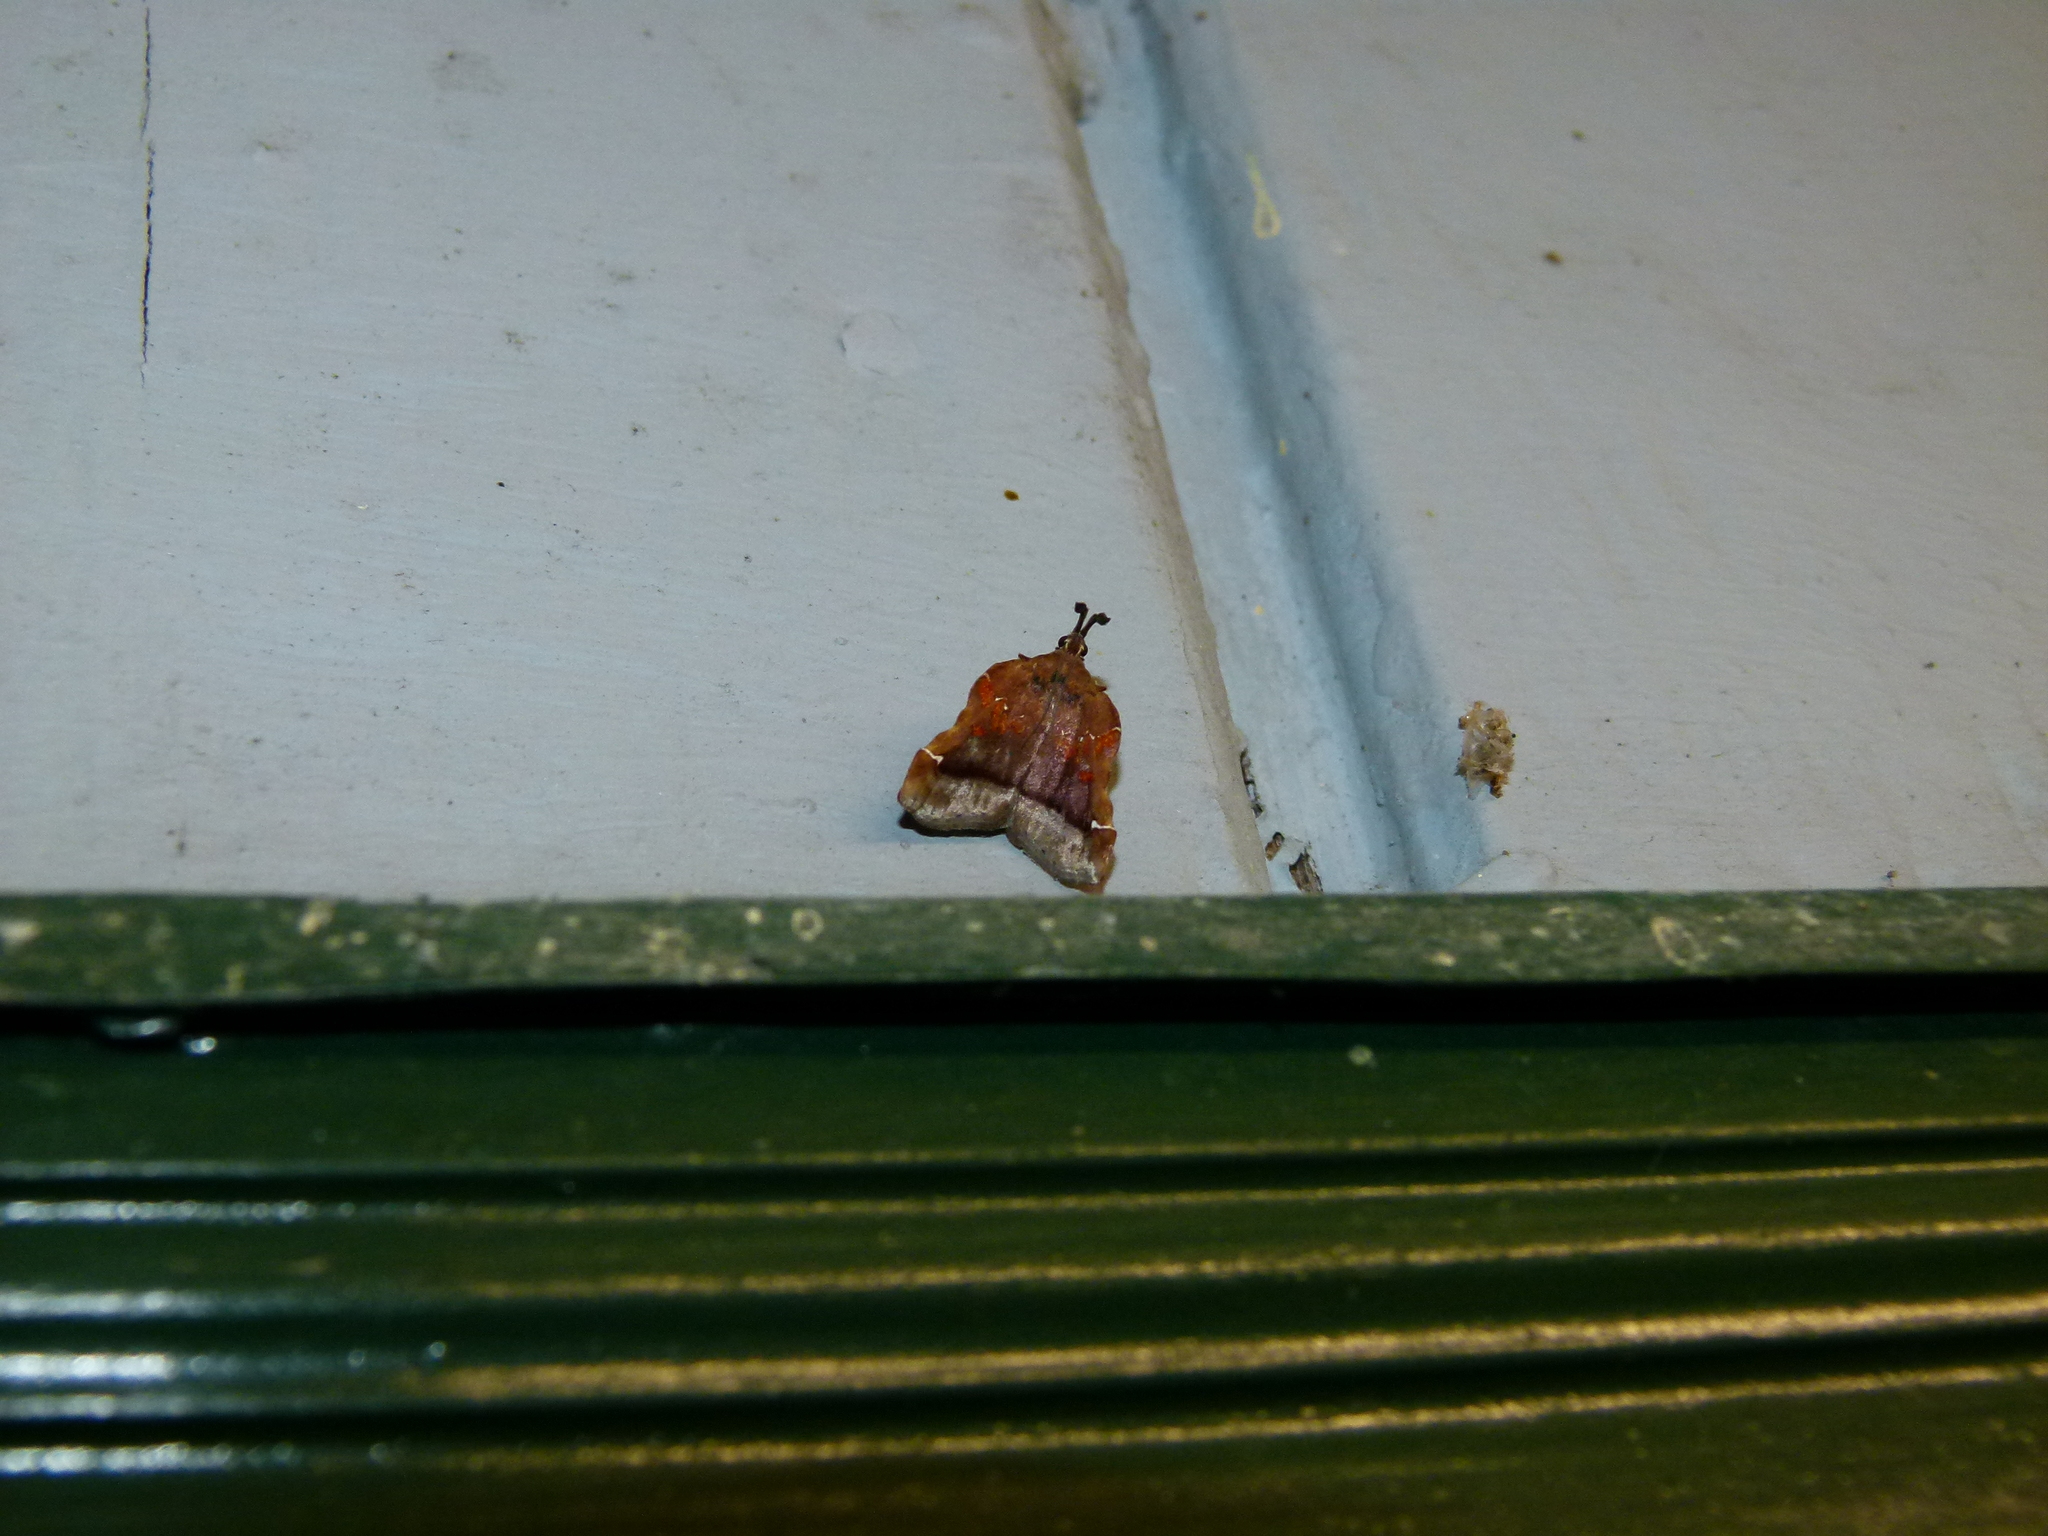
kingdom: Animalia
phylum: Arthropoda
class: Insecta
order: Lepidoptera
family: Pyralidae
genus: Clydonopteron
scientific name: Clydonopteron sacculana
